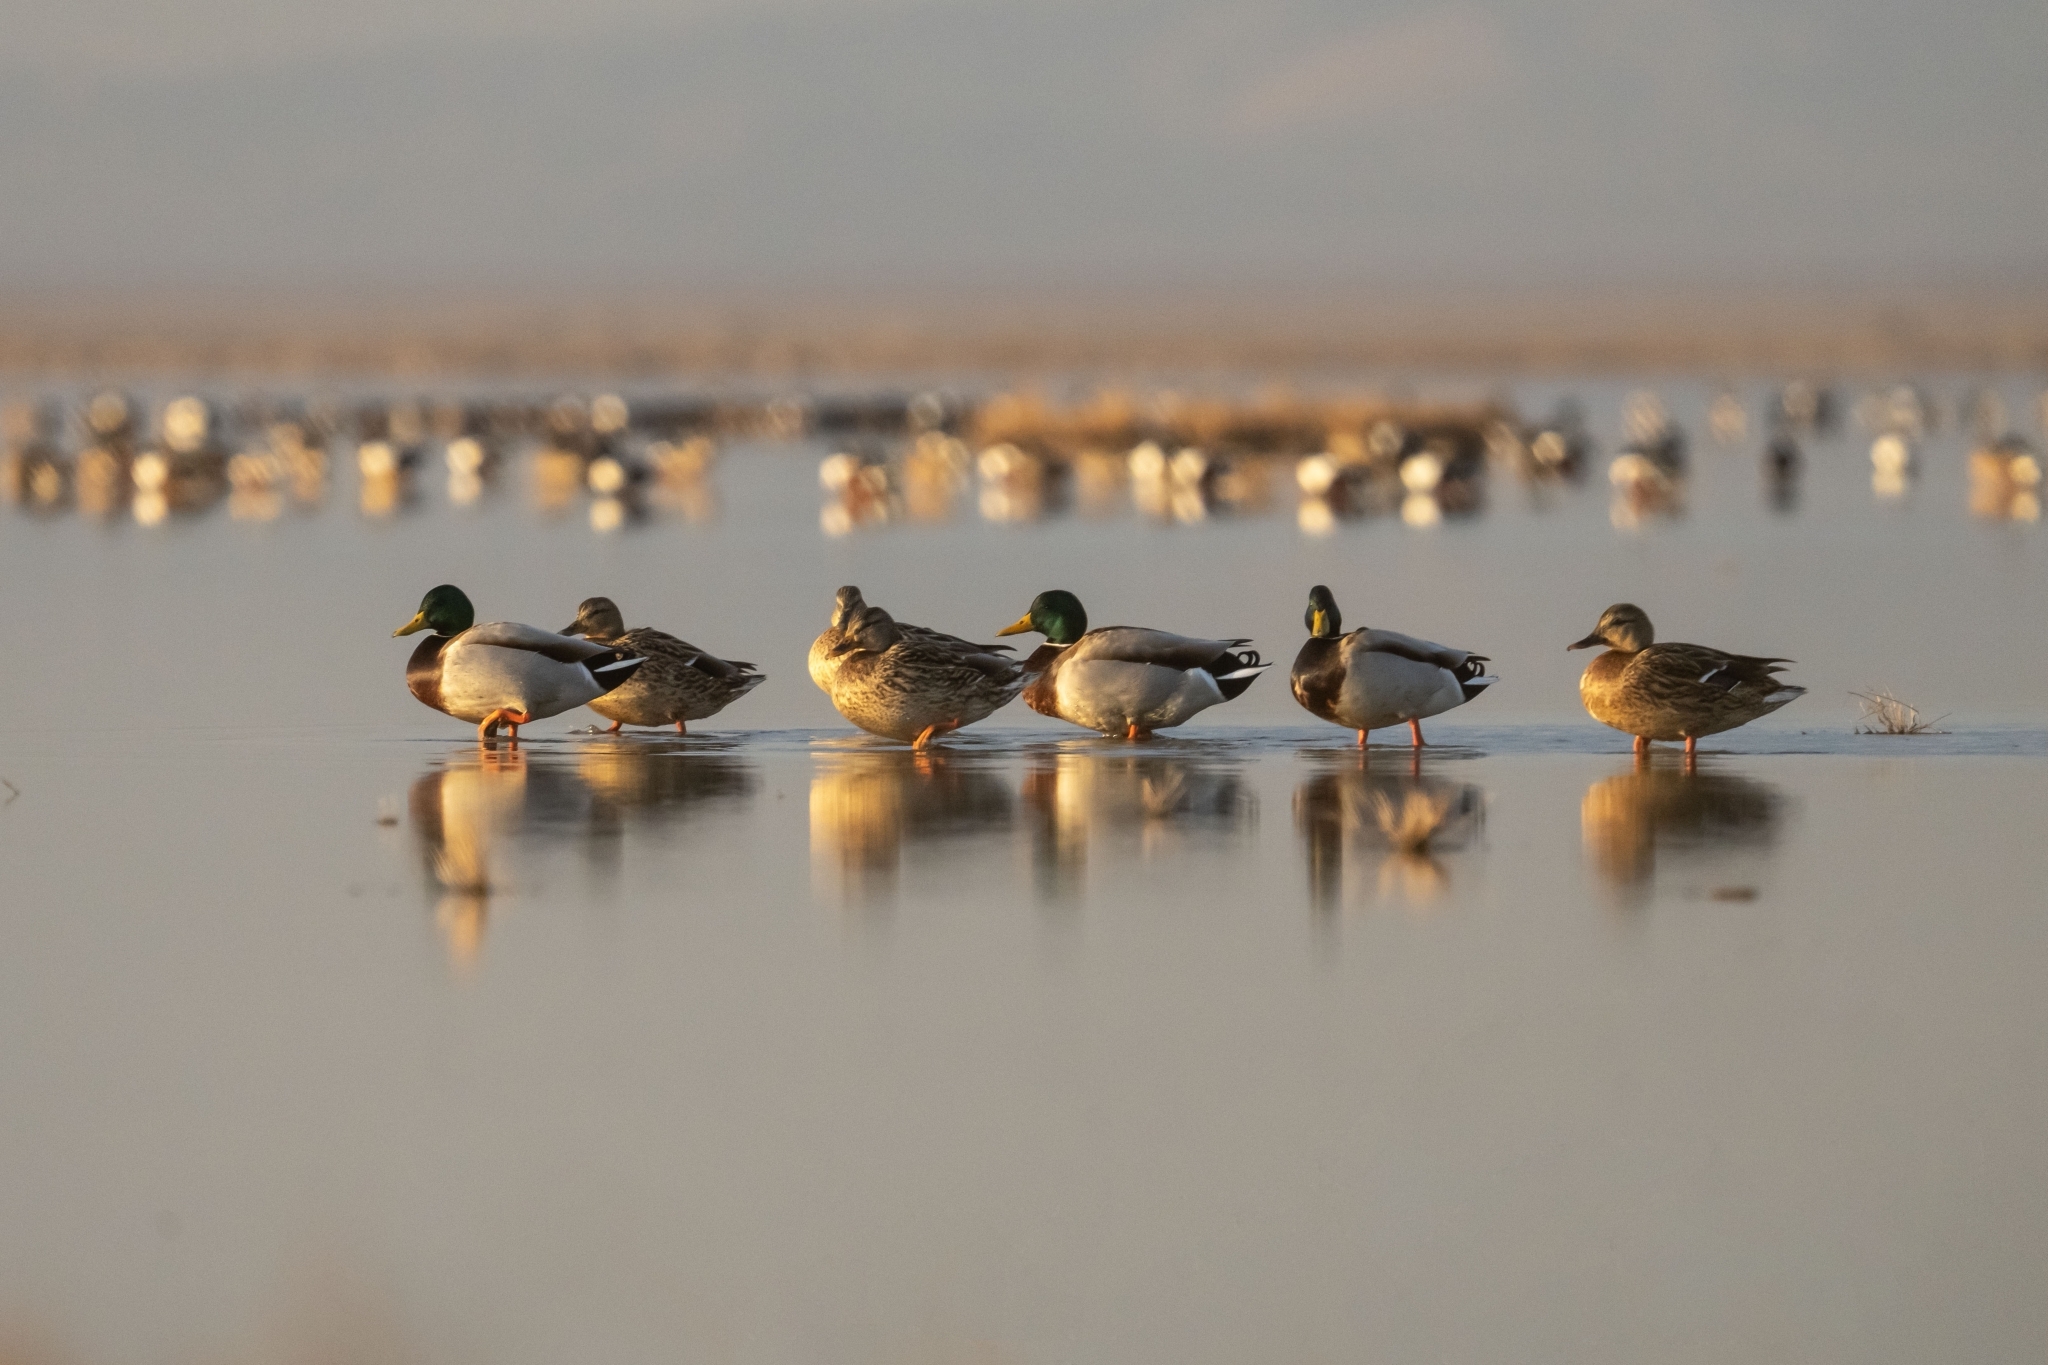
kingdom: Animalia
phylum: Chordata
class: Aves
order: Anseriformes
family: Anatidae
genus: Anas
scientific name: Anas platyrhynchos
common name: Mallard
